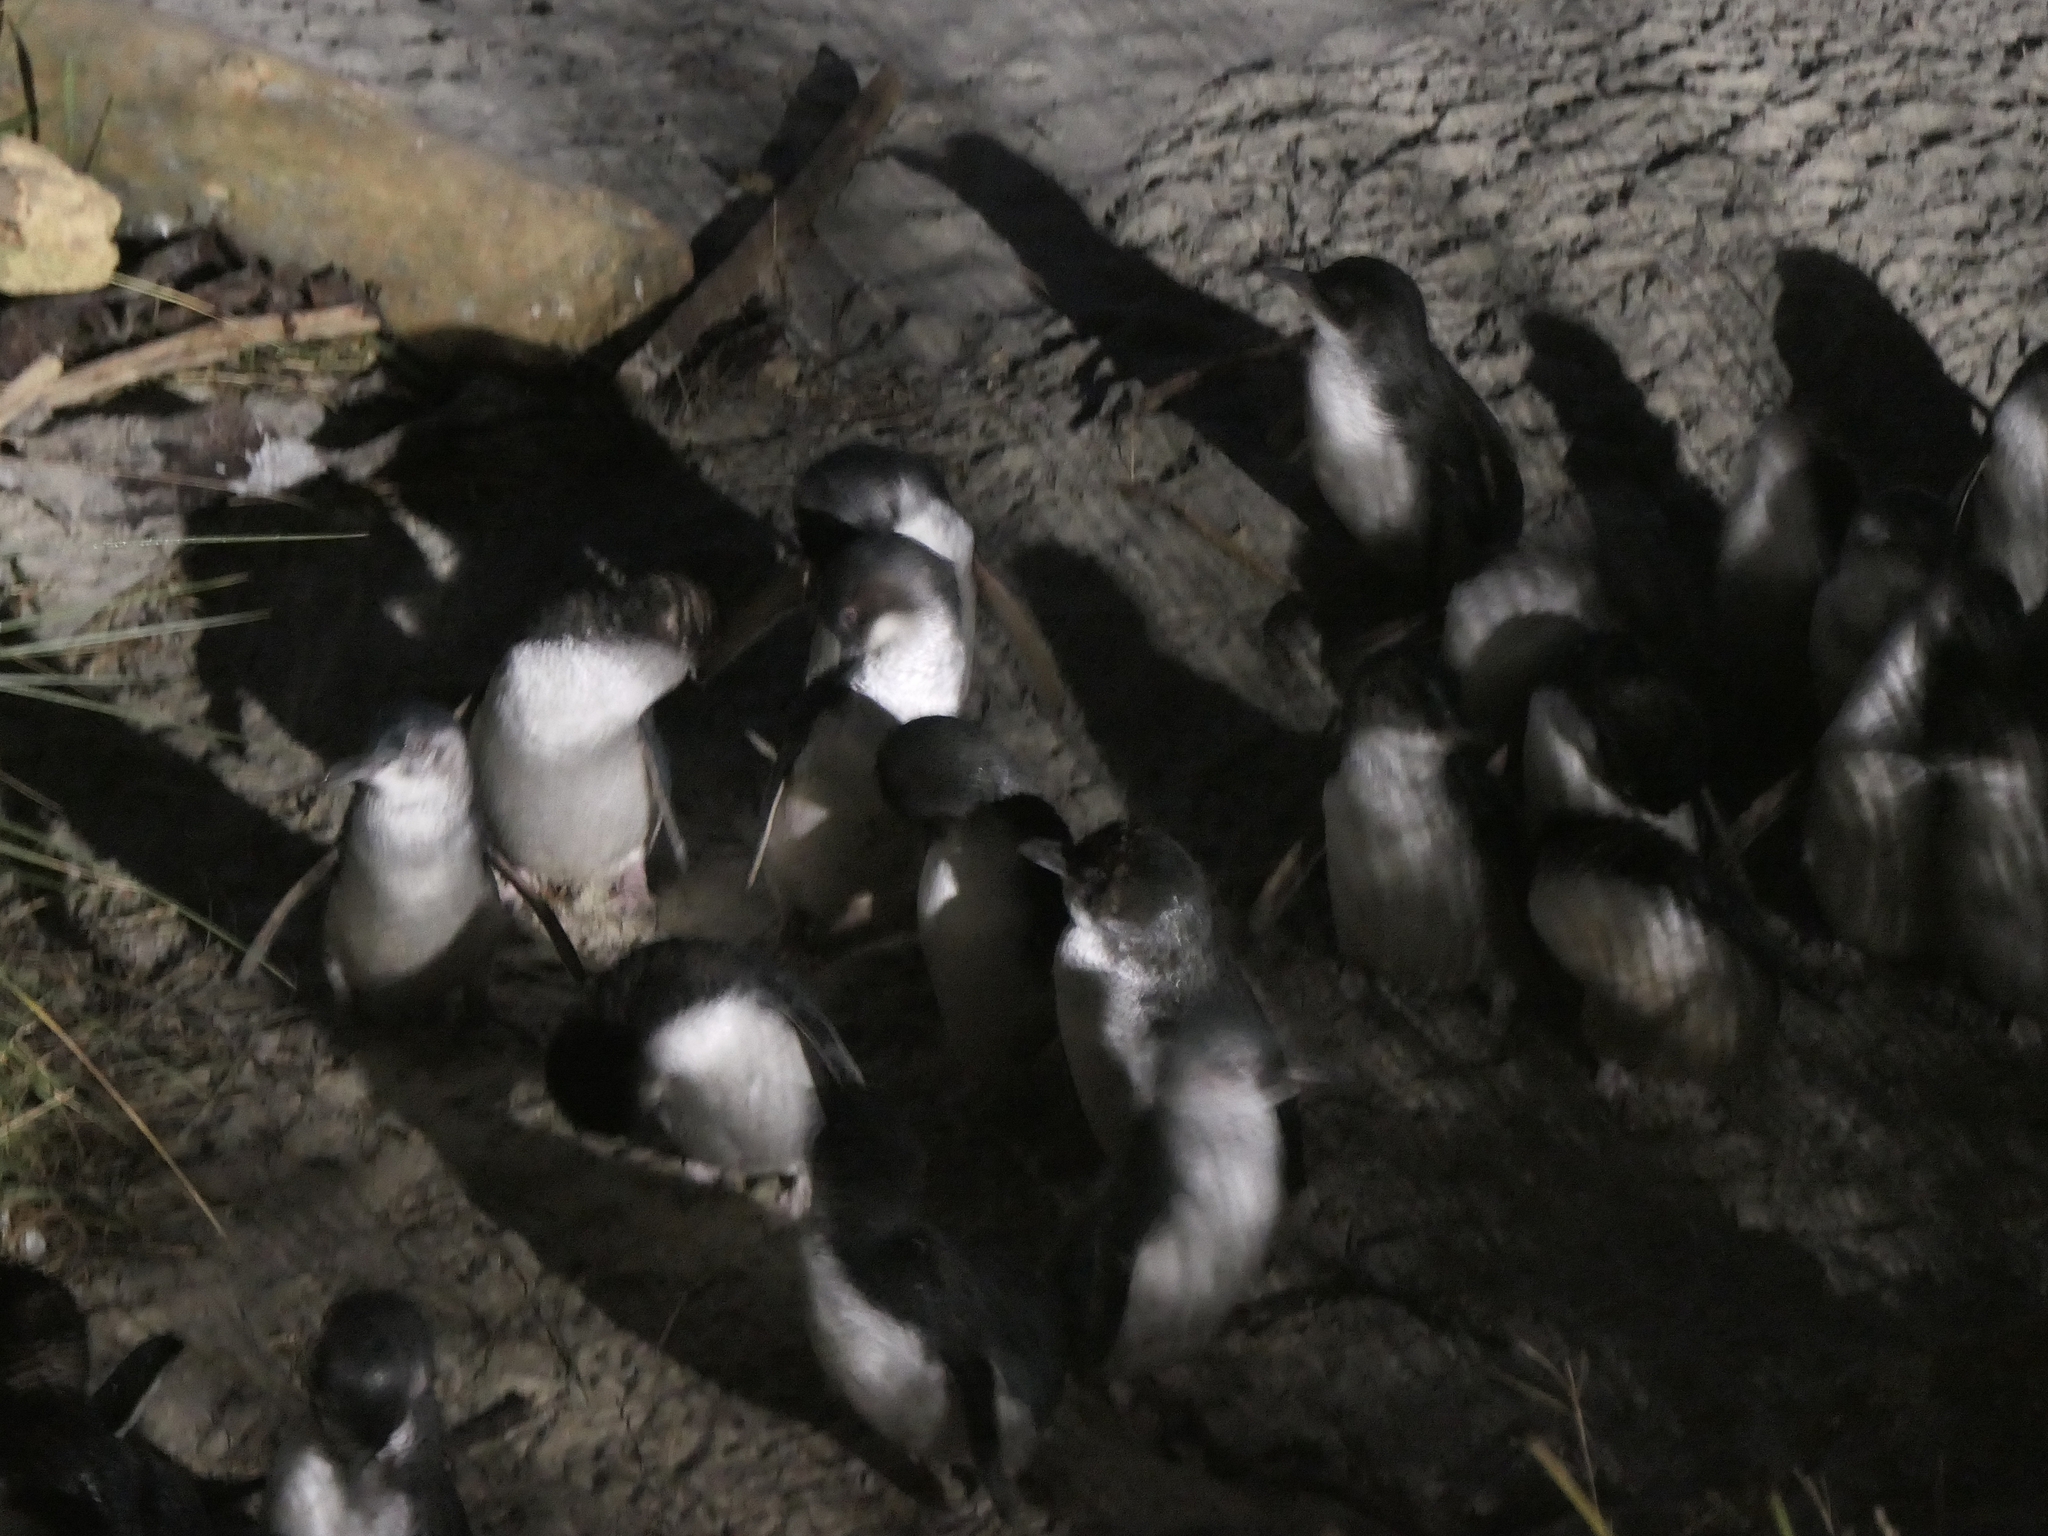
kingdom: Animalia
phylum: Chordata
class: Aves
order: Sphenisciformes
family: Spheniscidae
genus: Eudyptula
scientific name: Eudyptula minor
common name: Little penguin
